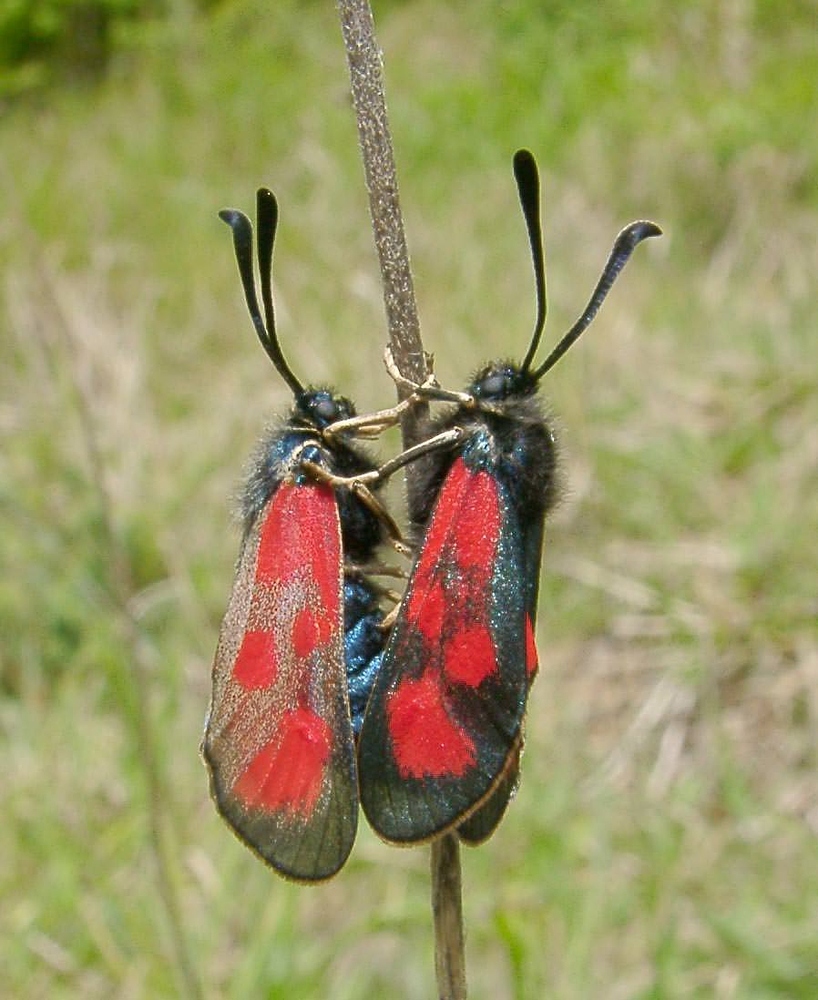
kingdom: Animalia
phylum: Arthropoda
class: Insecta
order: Lepidoptera
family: Zygaenidae
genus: Zygaena
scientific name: Zygaena loti
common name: Slender scotch burnet
